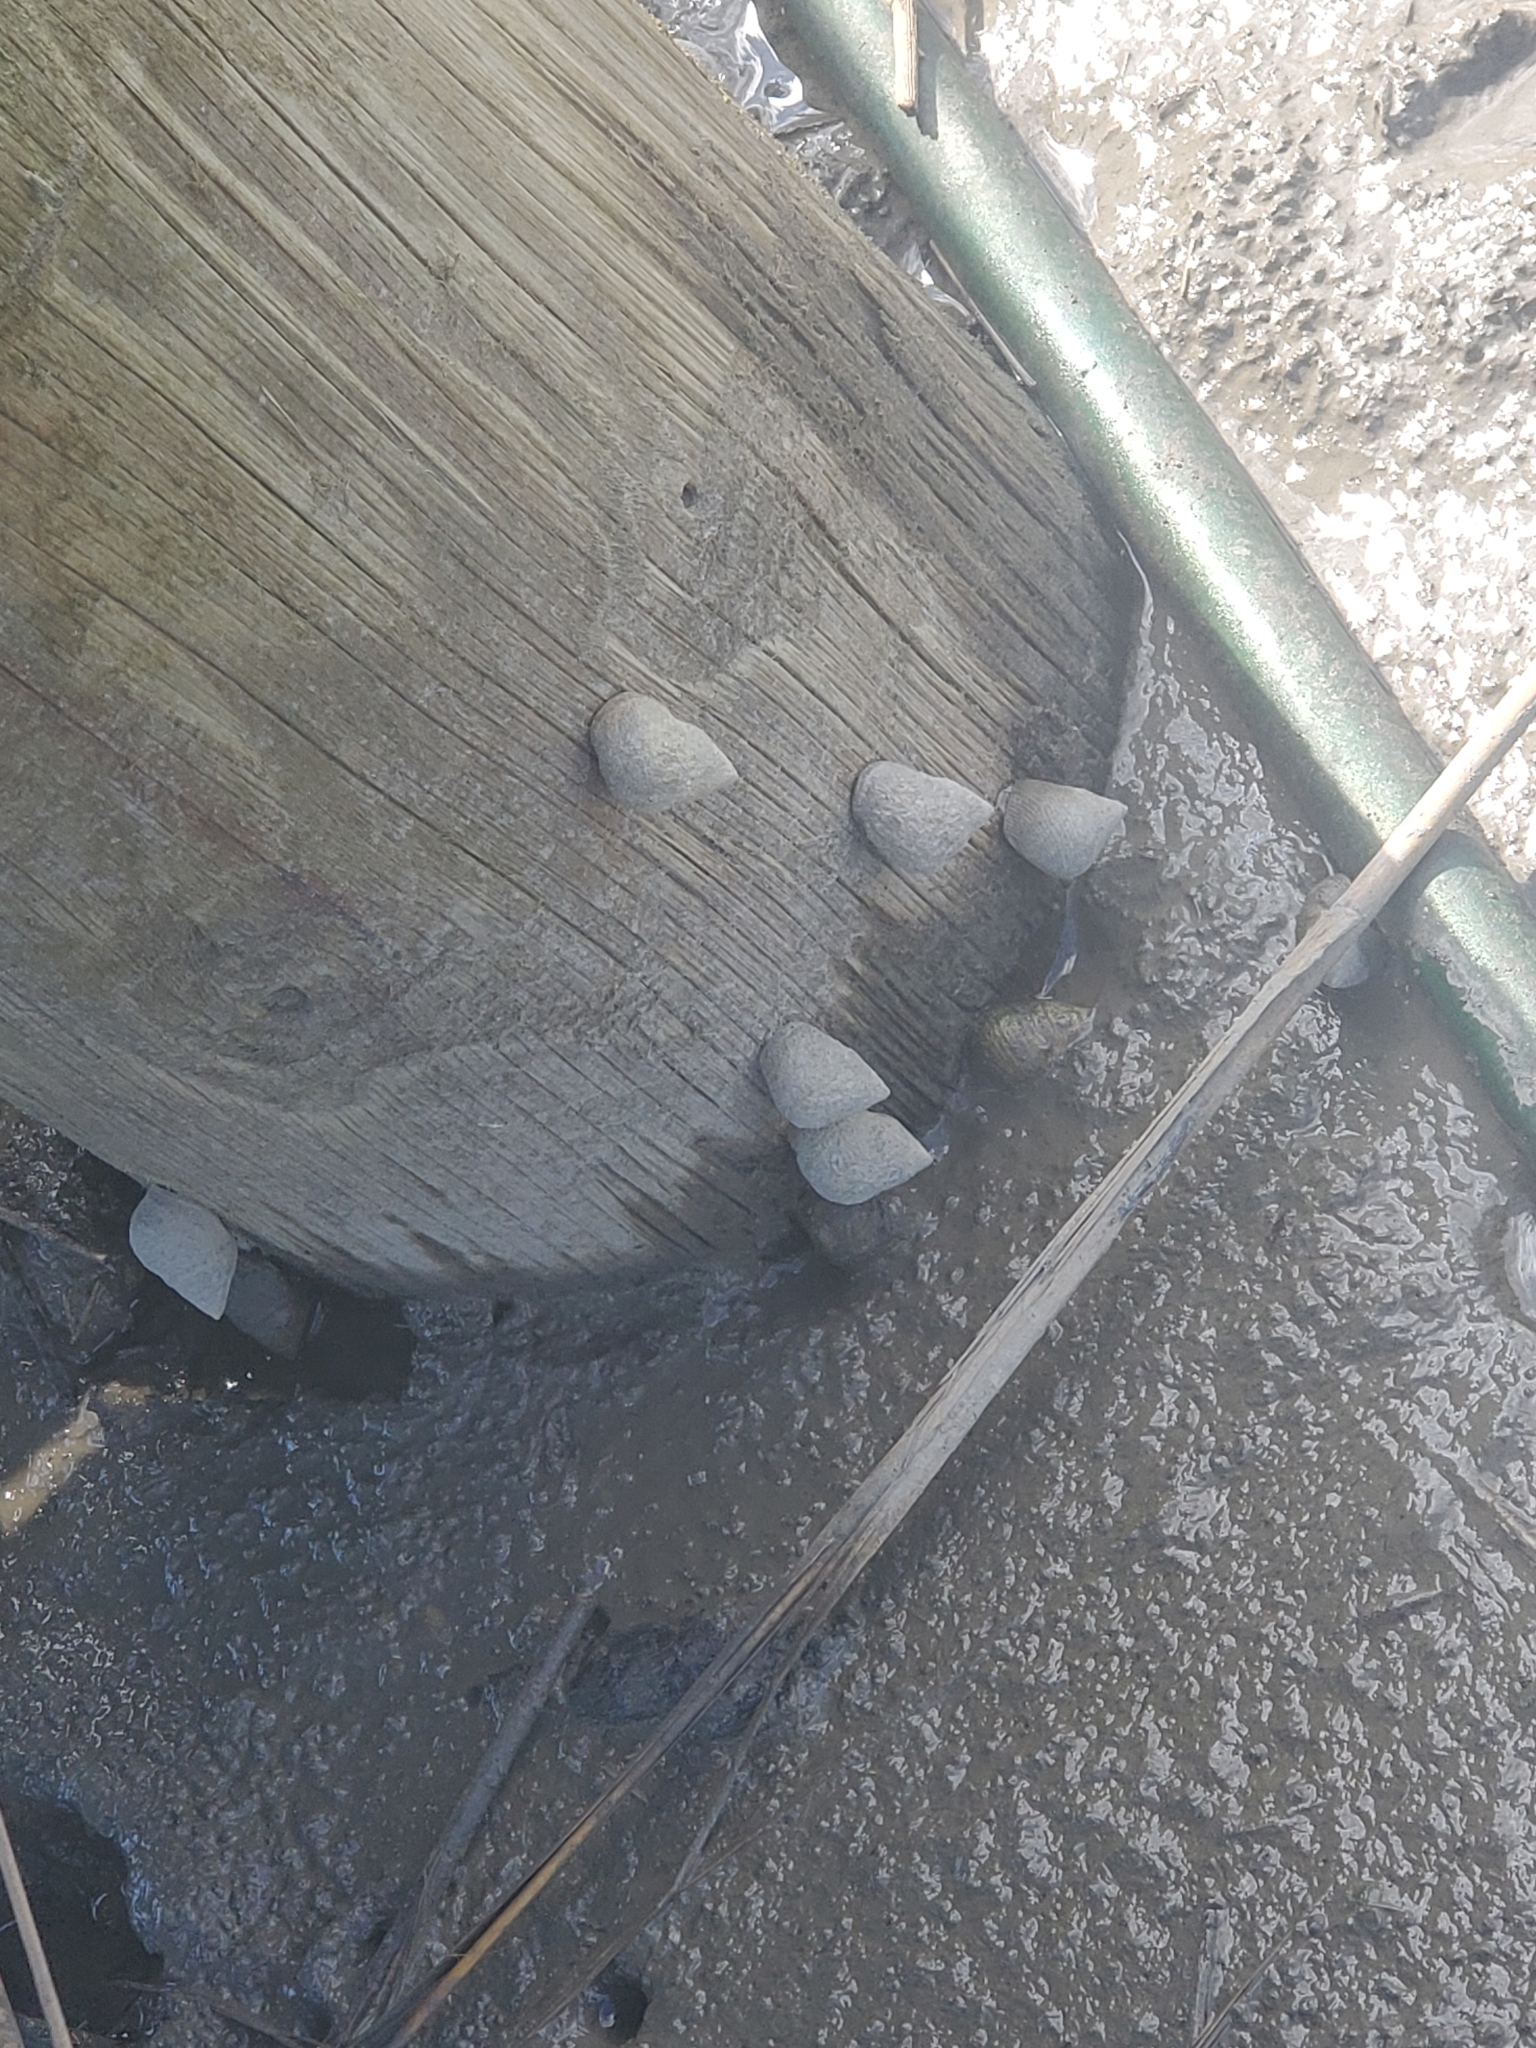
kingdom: Animalia
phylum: Mollusca
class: Gastropoda
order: Littorinimorpha
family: Littorinidae
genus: Littoraria
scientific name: Littoraria irrorata
